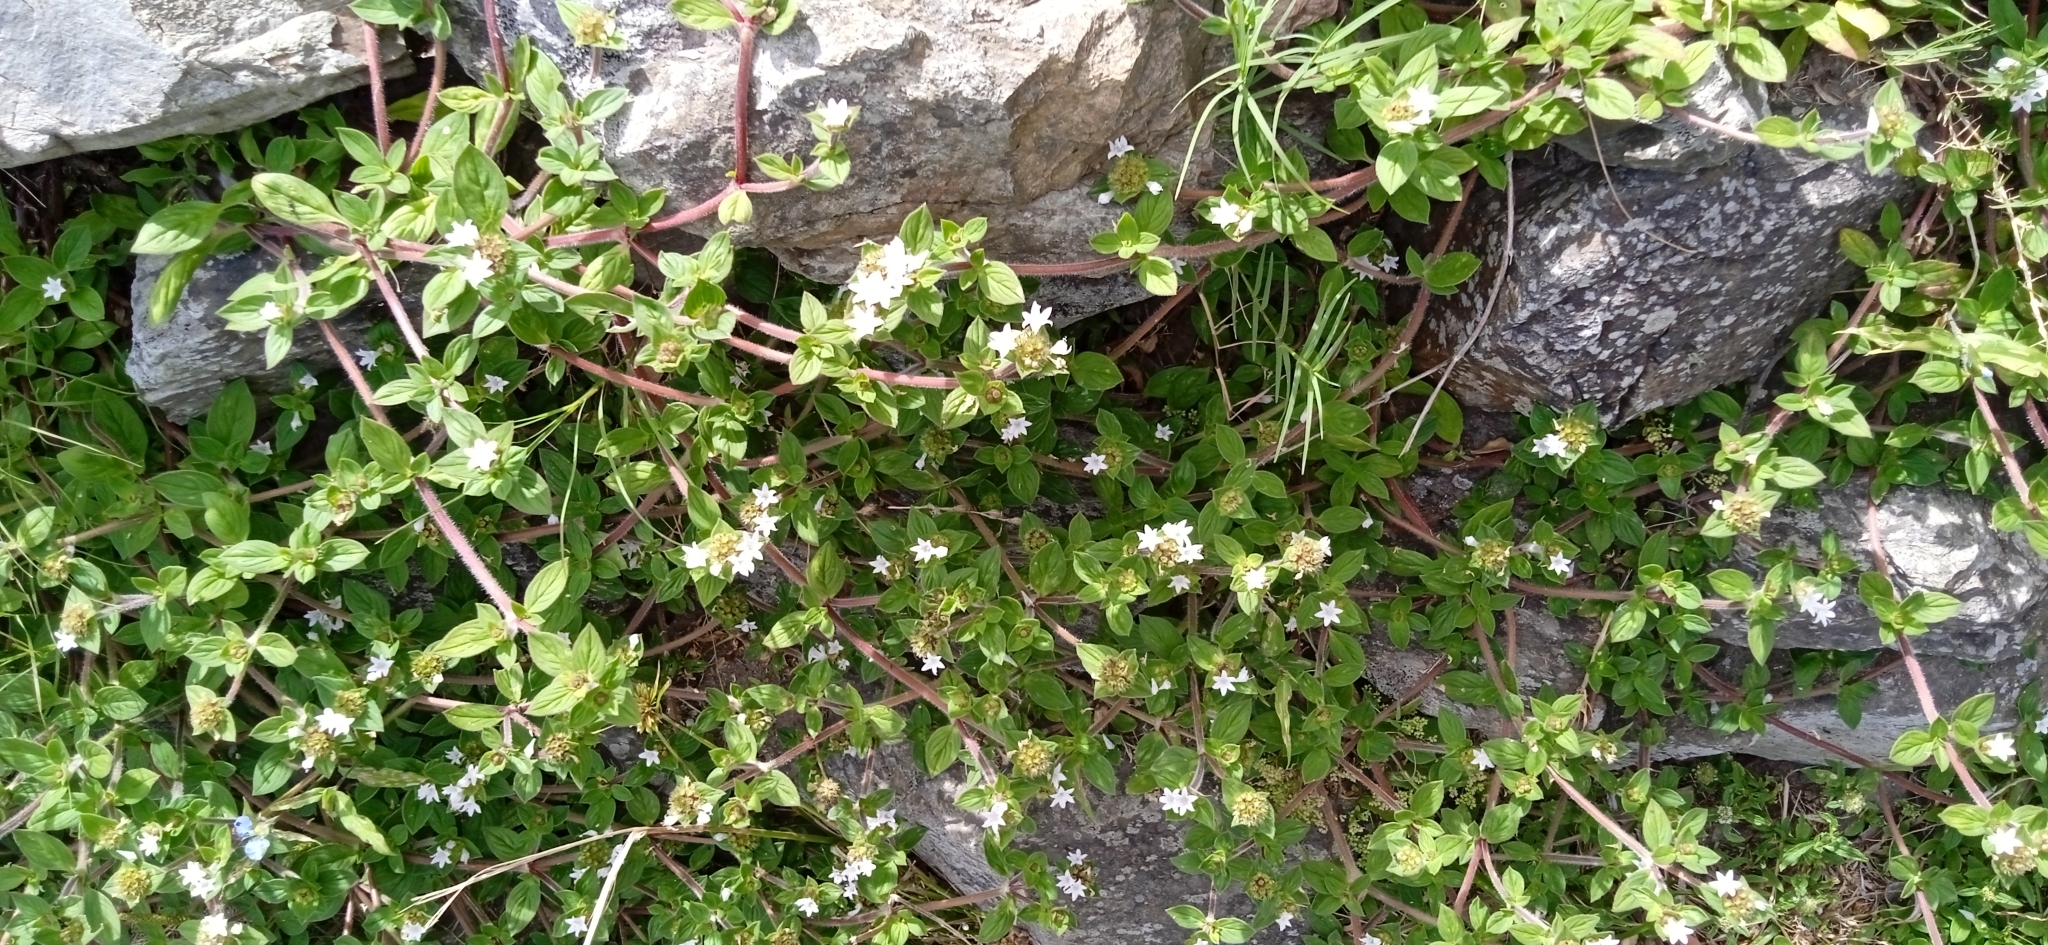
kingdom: Plantae
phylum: Tracheophyta
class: Magnoliopsida
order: Gentianales
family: Rubiaceae
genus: Richardia
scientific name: Richardia brasiliensis
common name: Tropical mexican clover
